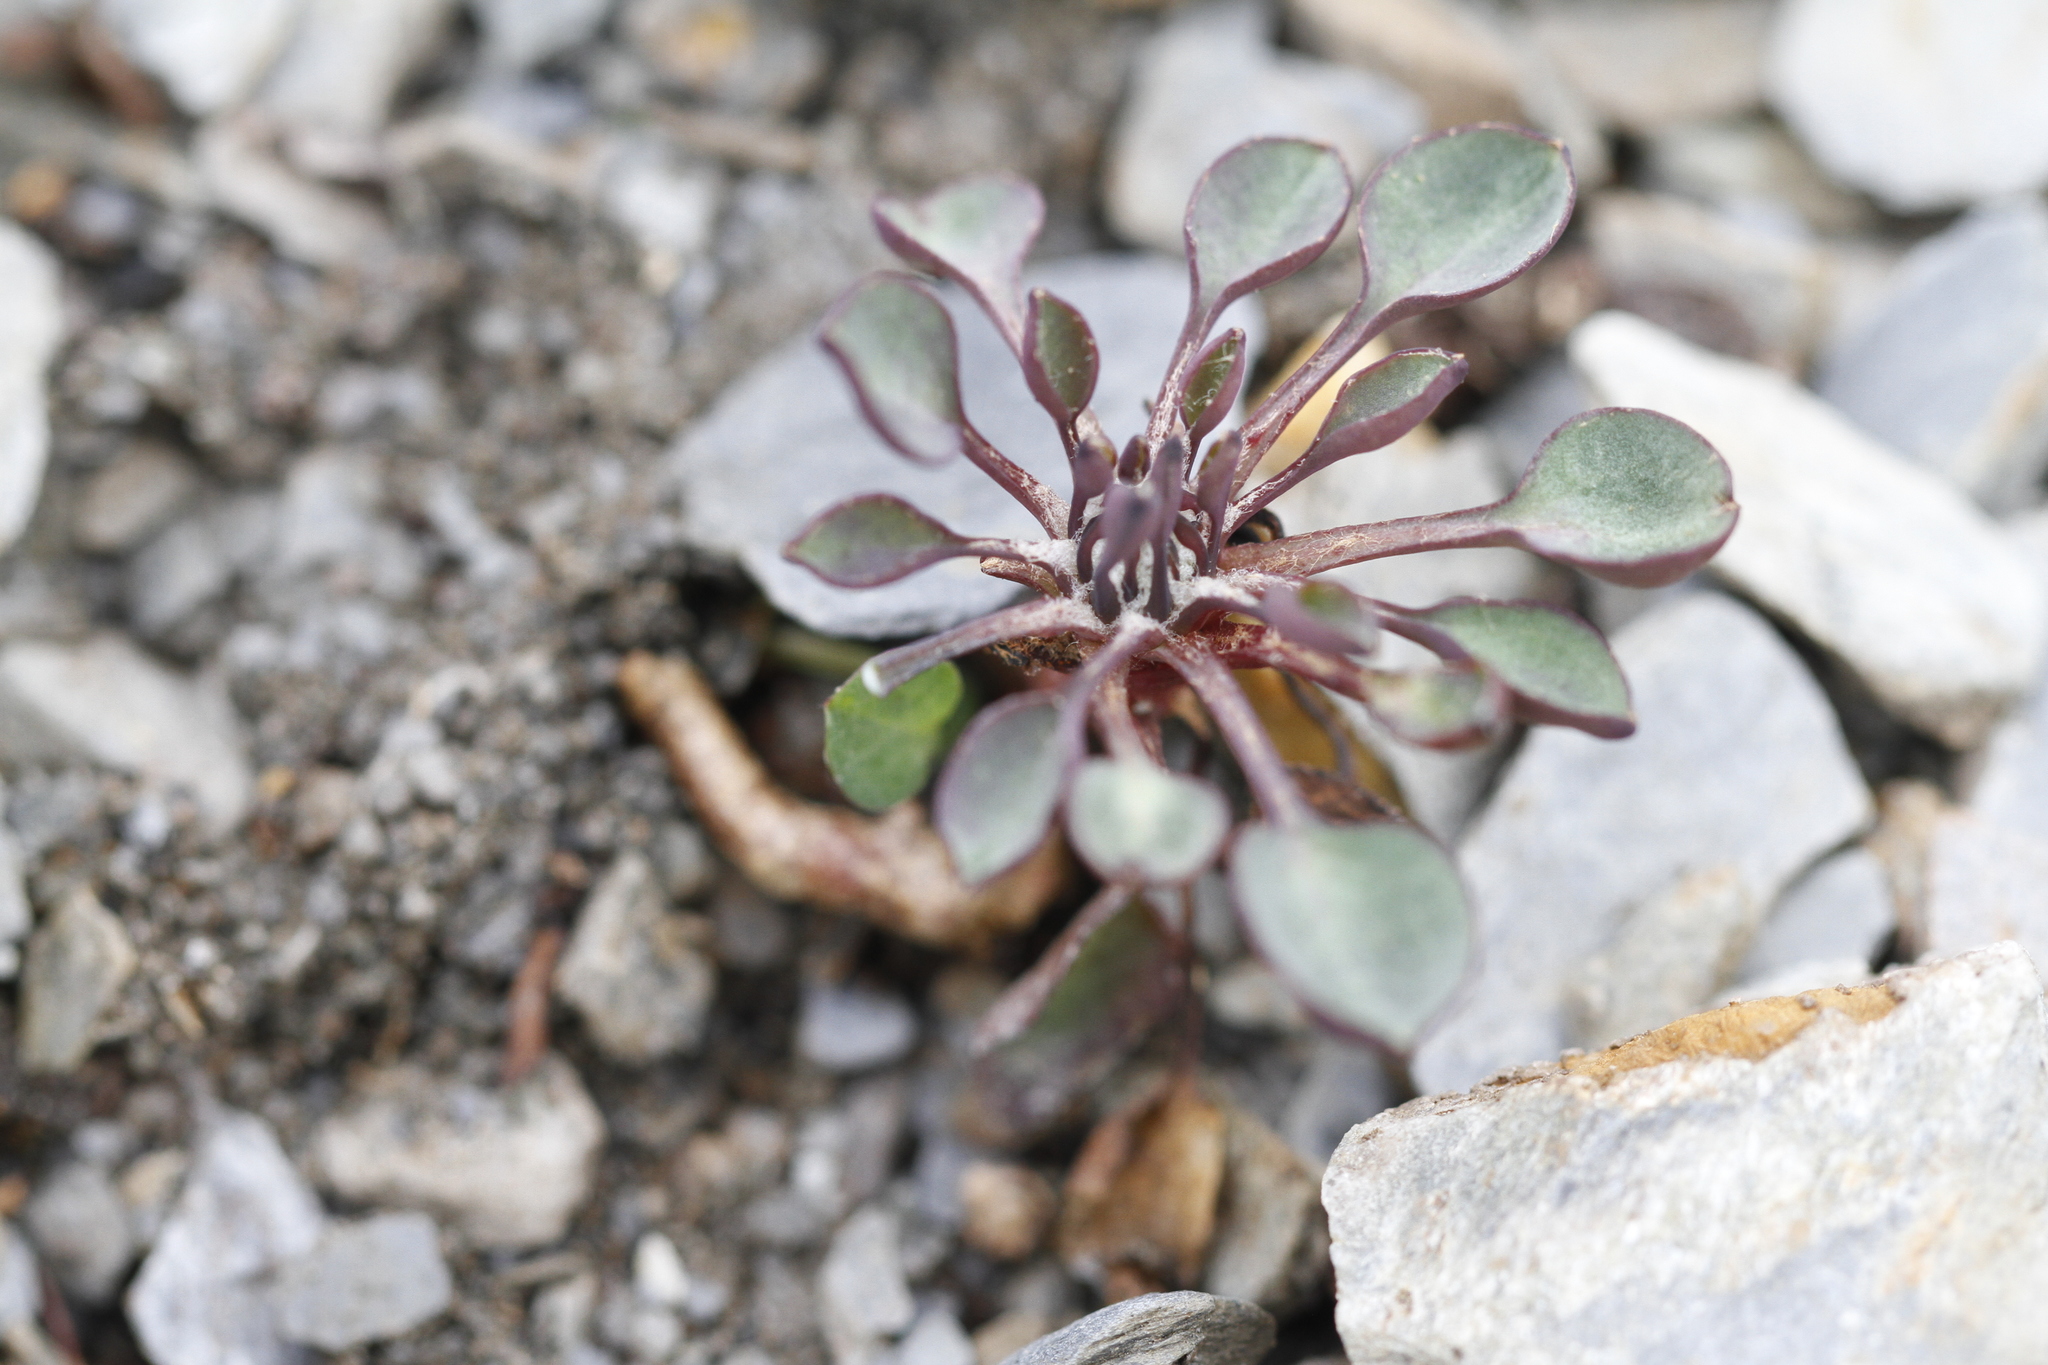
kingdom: Plantae
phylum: Tracheophyta
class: Magnoliopsida
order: Asterales
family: Asteraceae
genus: Askellia
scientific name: Askellia pygmaea
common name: Dwarf alpine hawksbeard
